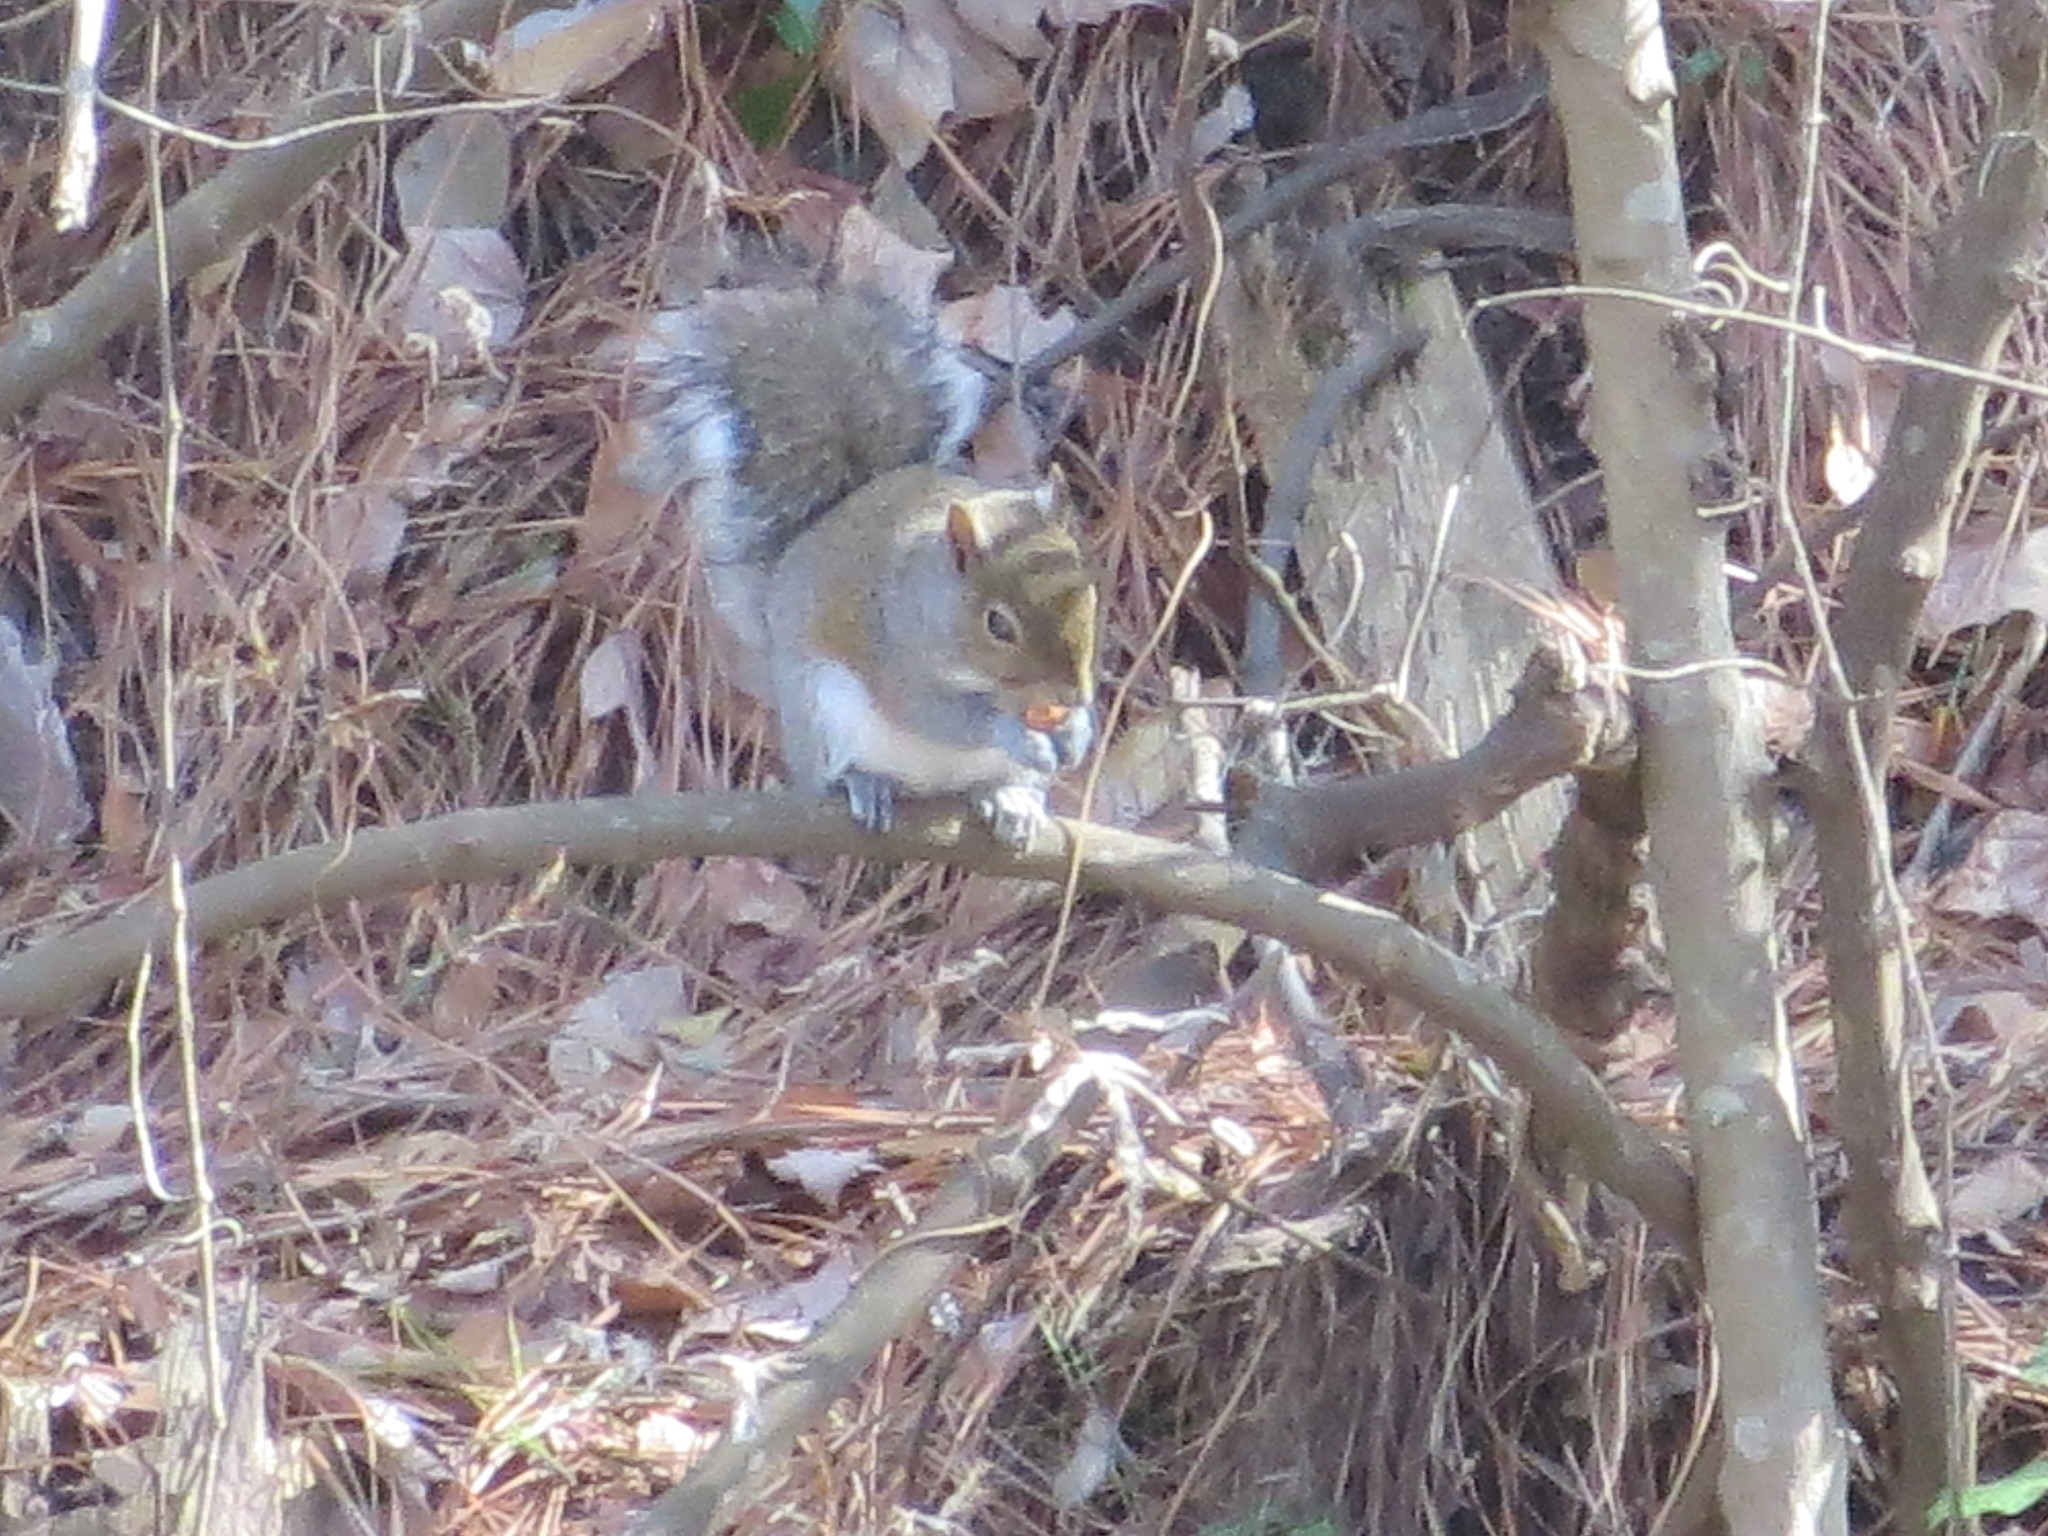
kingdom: Animalia
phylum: Chordata
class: Mammalia
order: Rodentia
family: Sciuridae
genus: Sciurus
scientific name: Sciurus carolinensis
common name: Eastern gray squirrel
